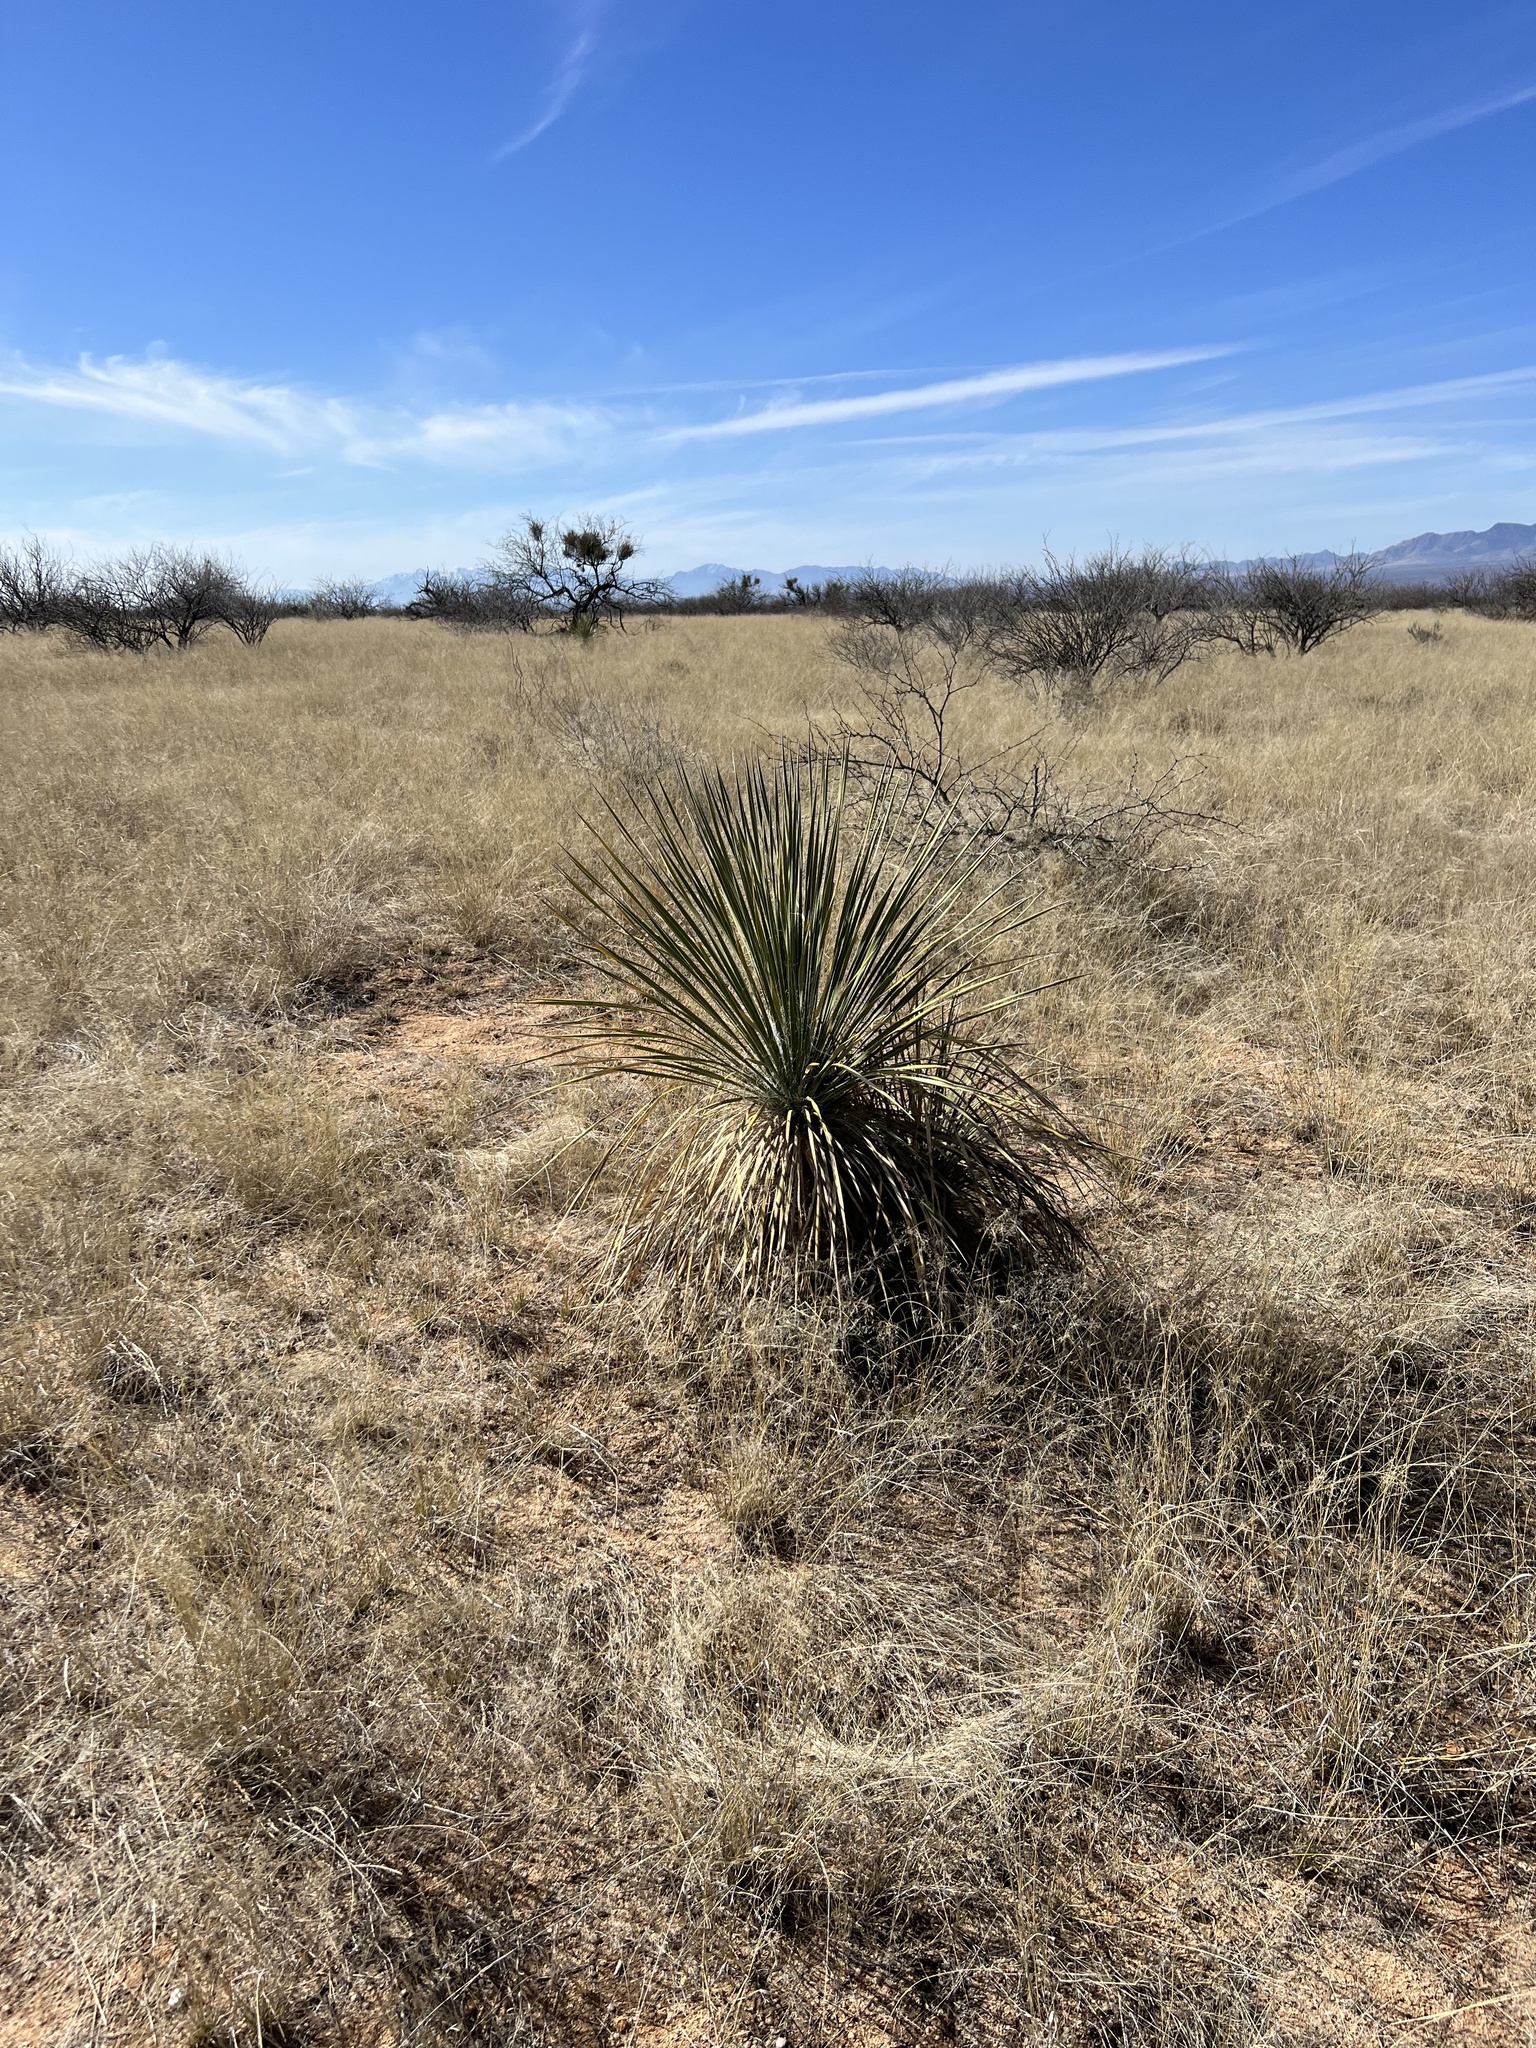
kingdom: Plantae
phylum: Tracheophyta
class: Liliopsida
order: Asparagales
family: Asparagaceae
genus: Yucca
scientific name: Yucca elata
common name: Palmella
